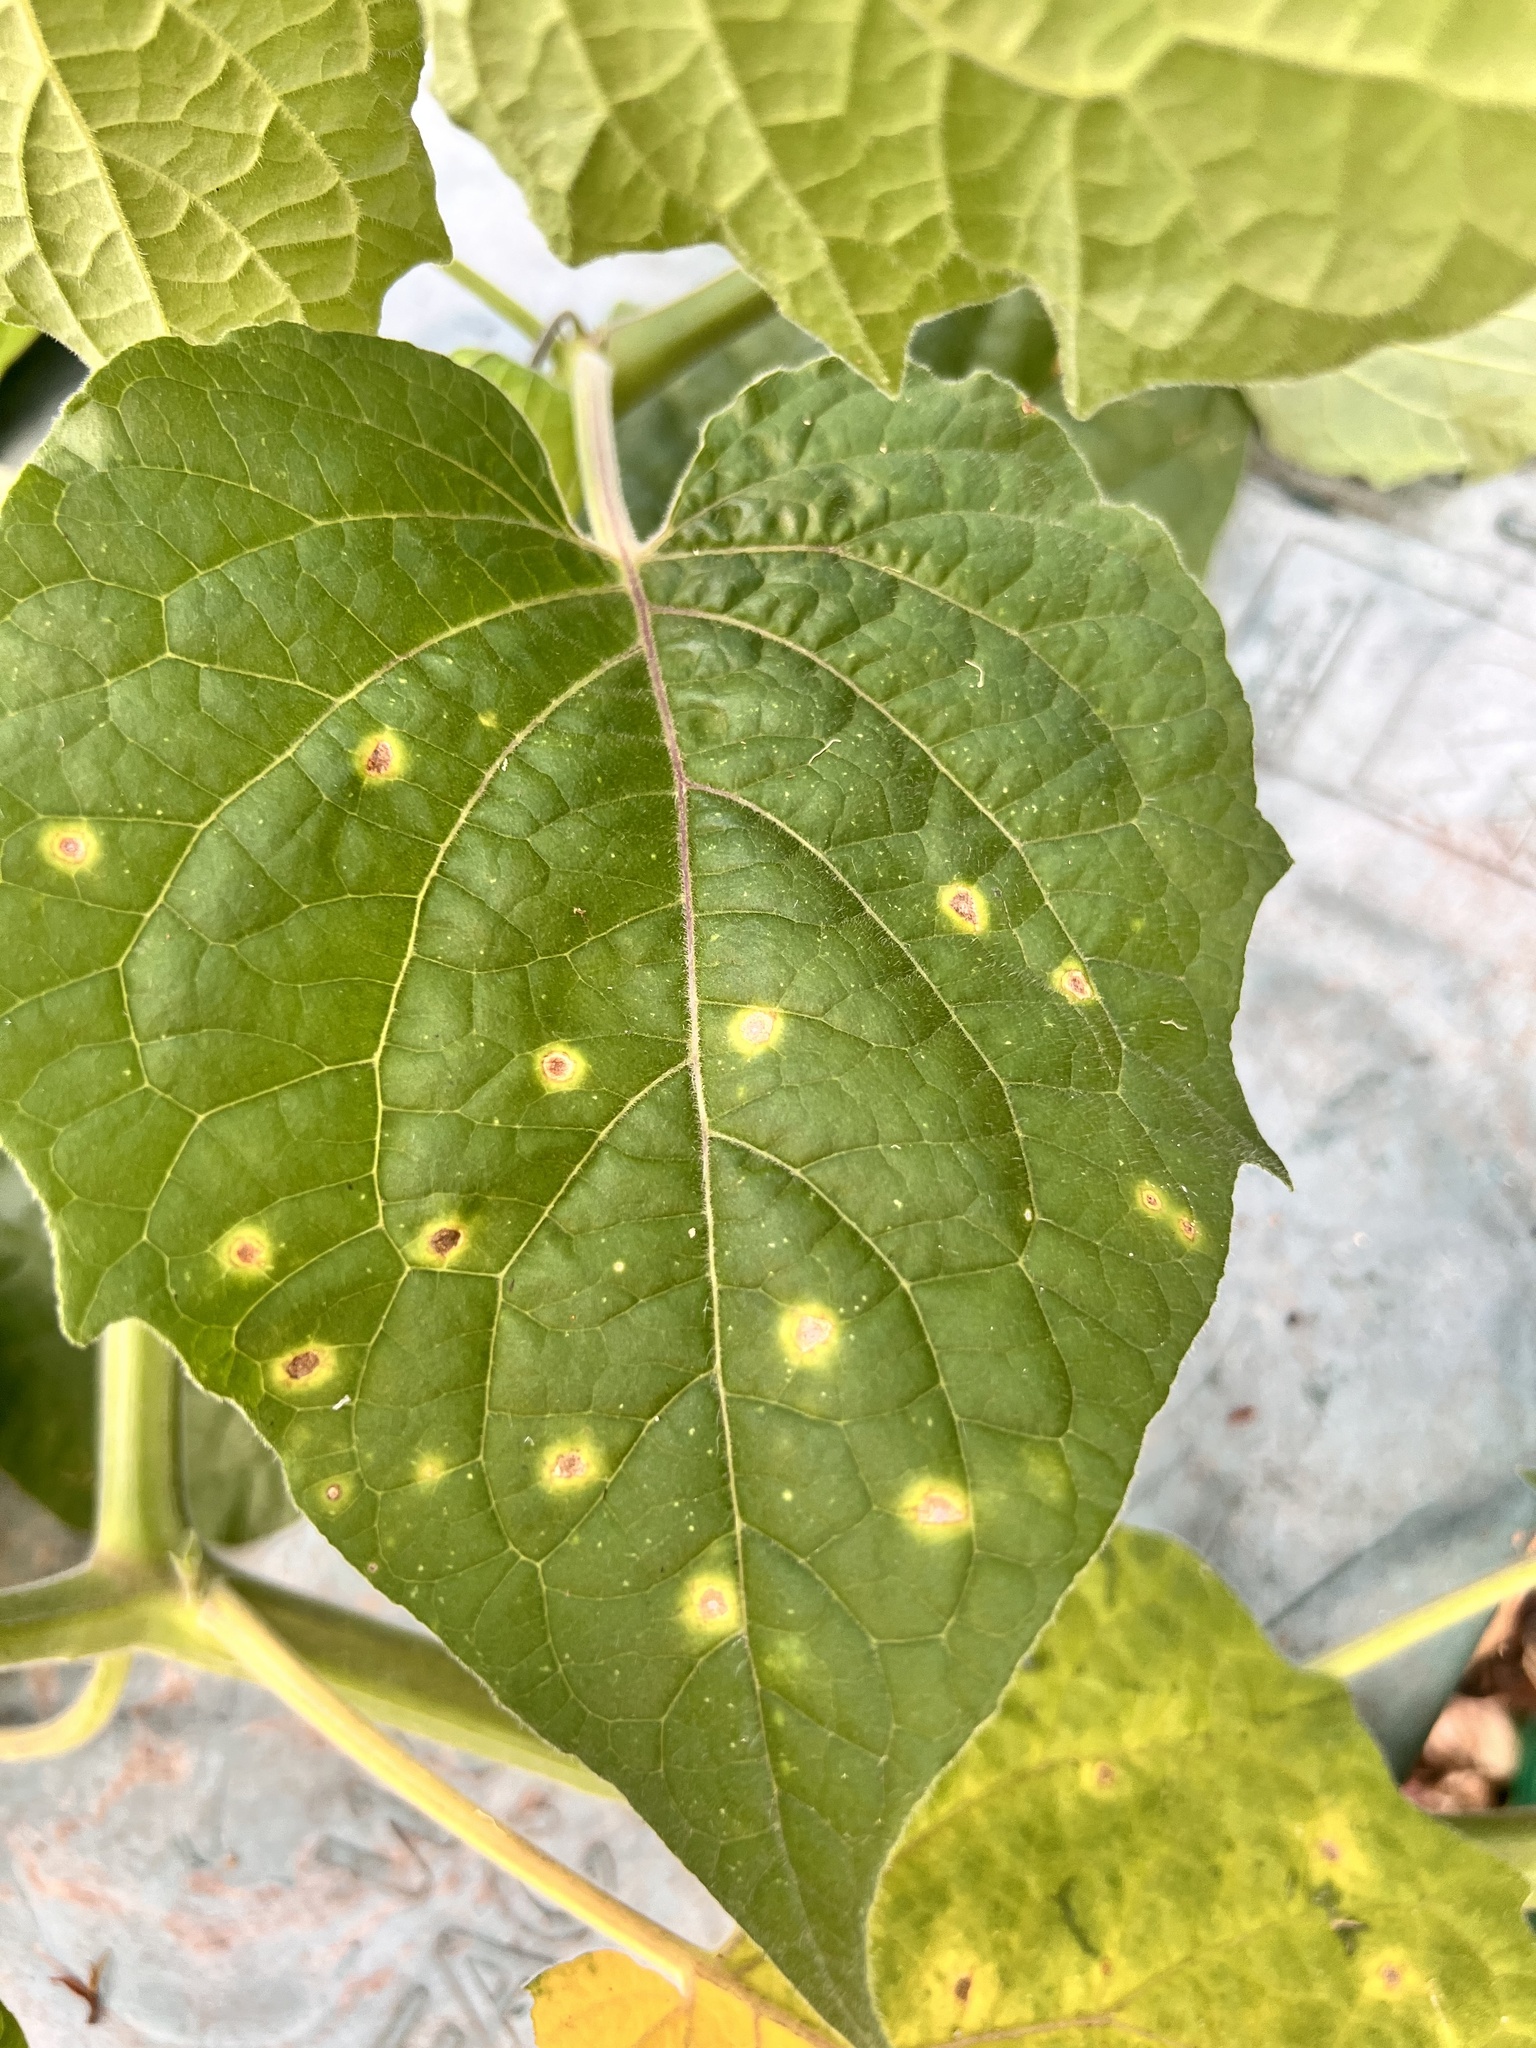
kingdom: Plantae
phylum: Tracheophyta
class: Magnoliopsida
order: Solanales
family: Solanaceae
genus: Physalis
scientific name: Physalis peruviana
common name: Cape-gooseberry
